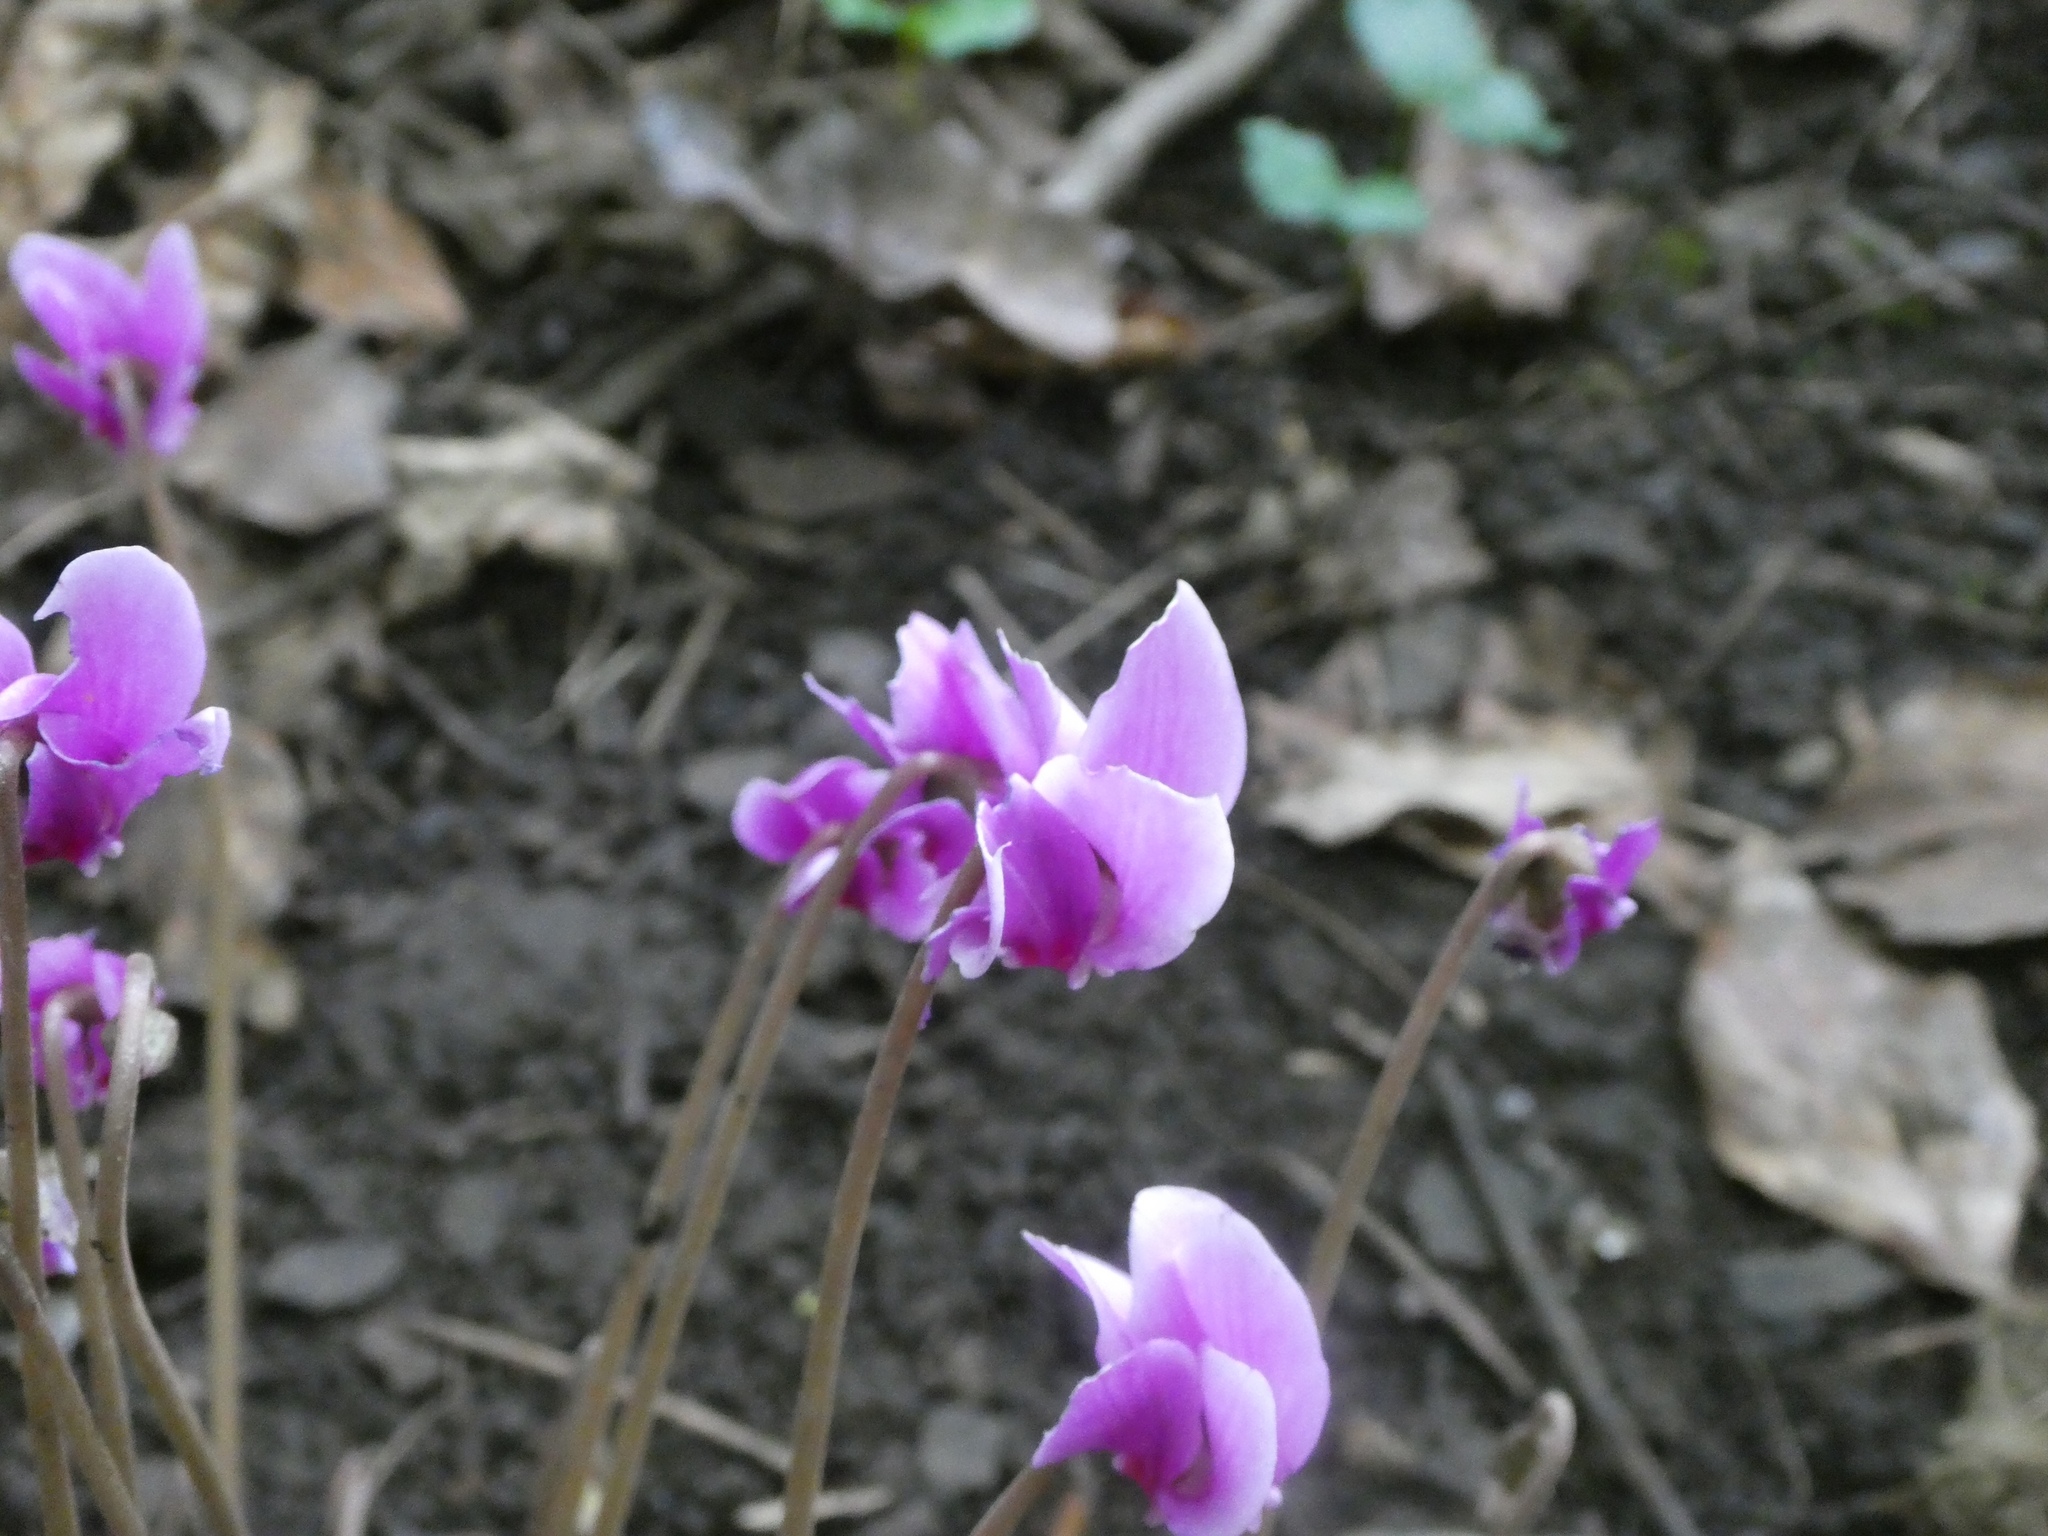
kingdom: Plantae
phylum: Tracheophyta
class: Magnoliopsida
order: Ericales
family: Primulaceae
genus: Cyclamen
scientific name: Cyclamen hederifolium
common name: Sowbread
